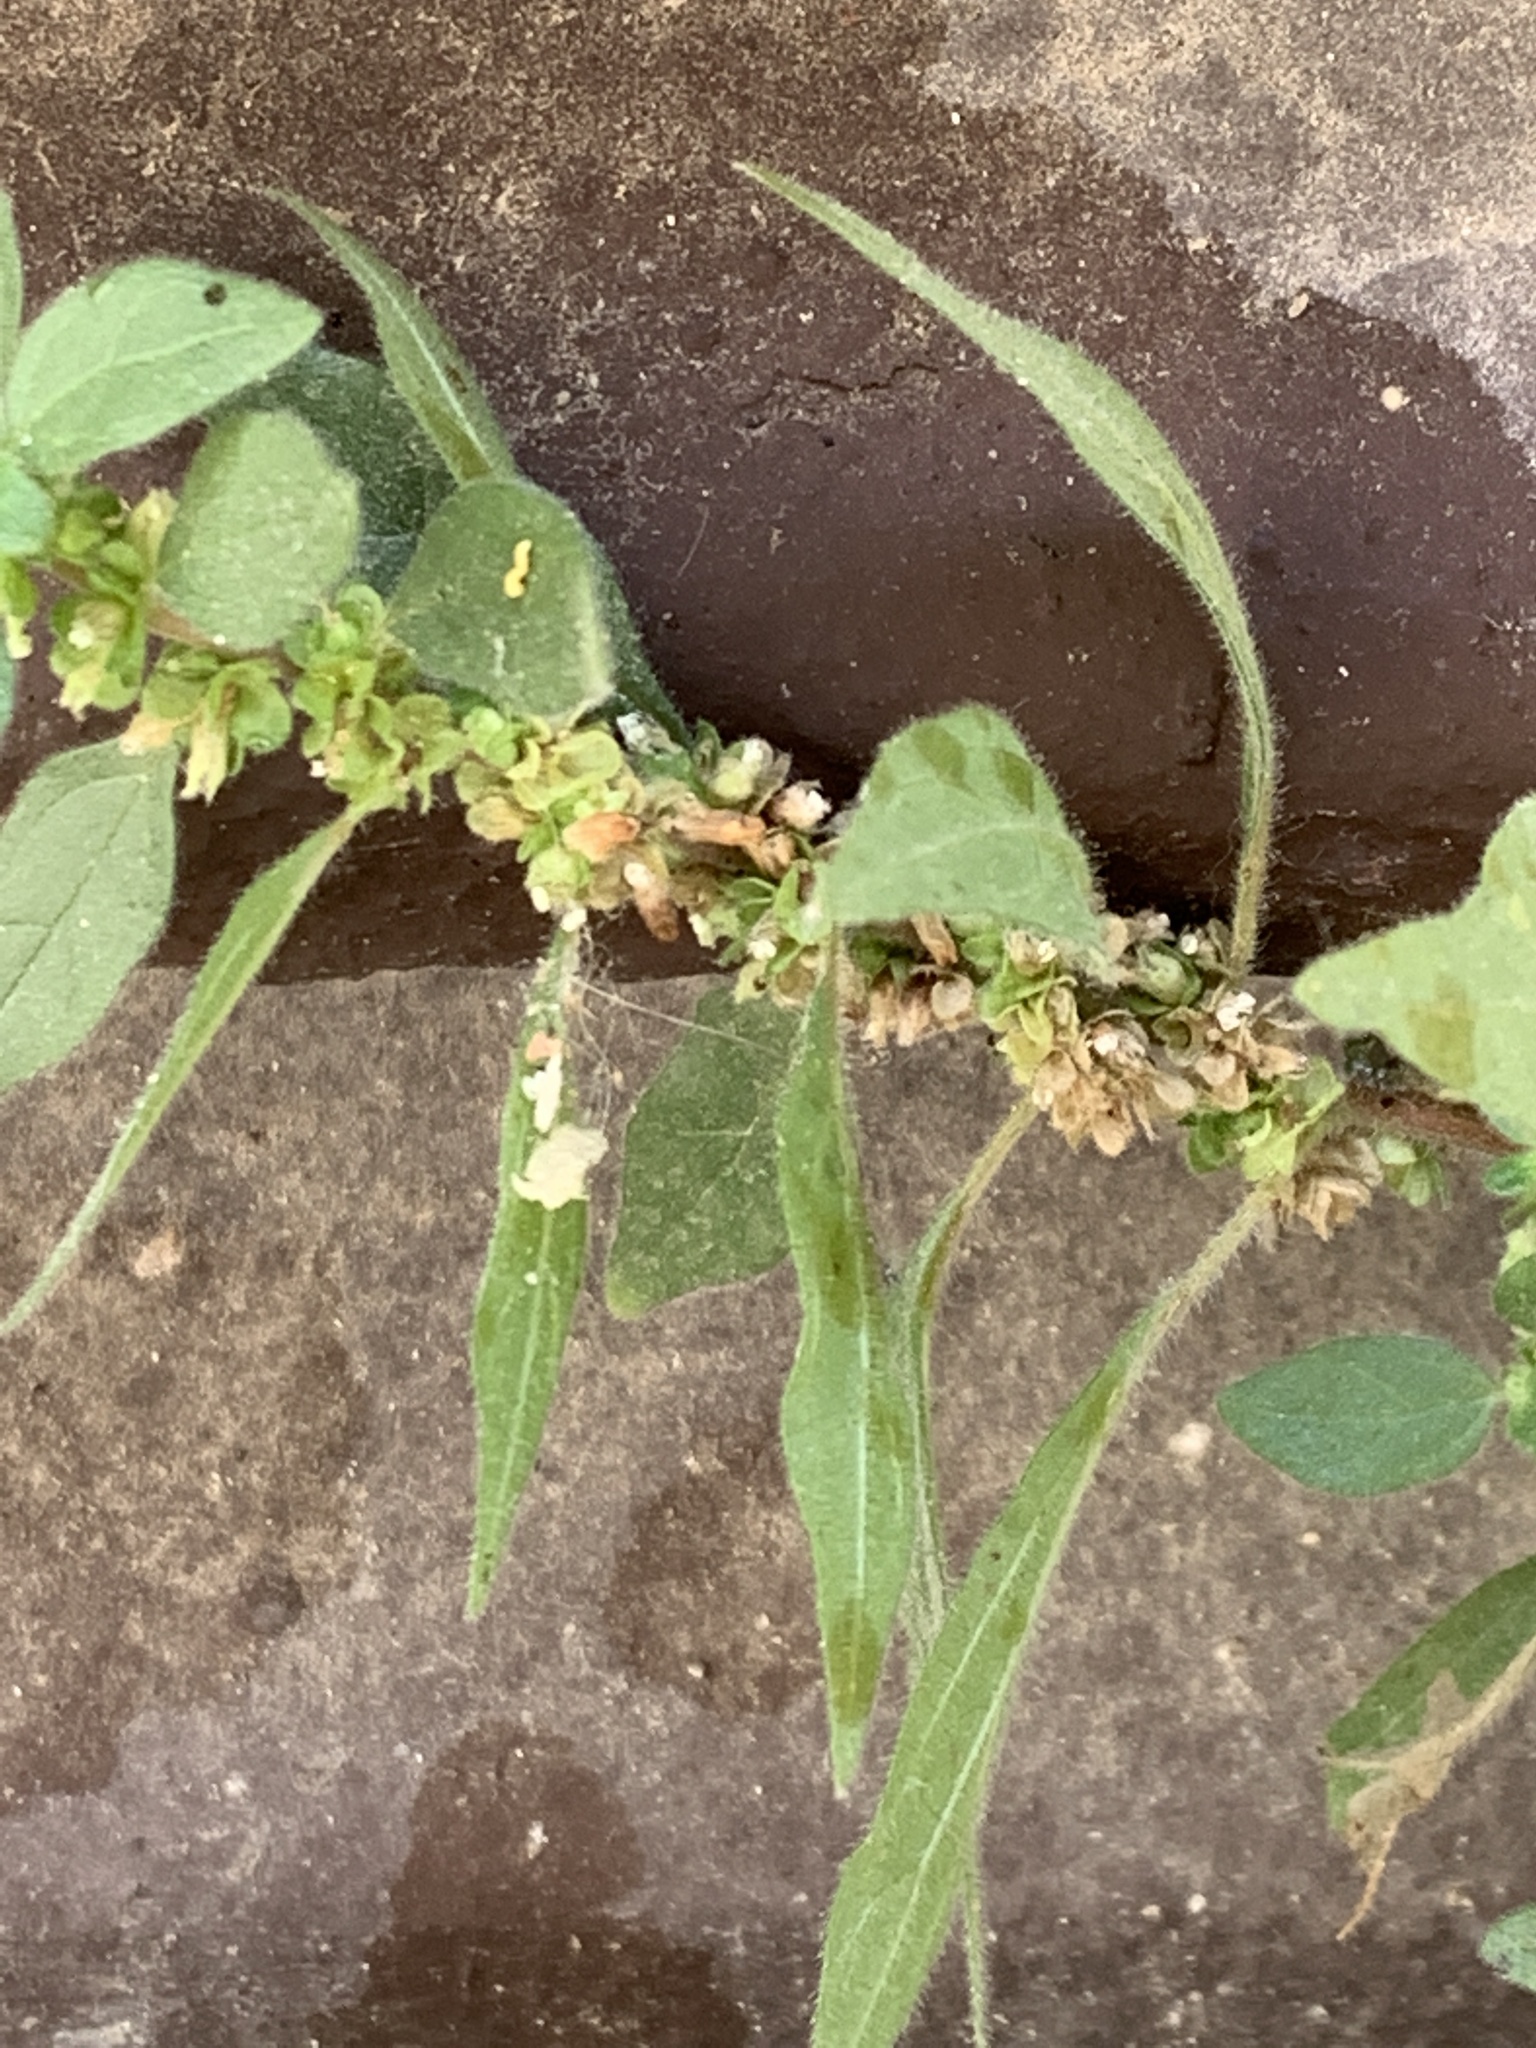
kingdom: Plantae
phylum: Tracheophyta
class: Magnoliopsida
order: Rosales
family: Urticaceae
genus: Parietaria
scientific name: Parietaria judaica
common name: Pellitory-of-the-wall
